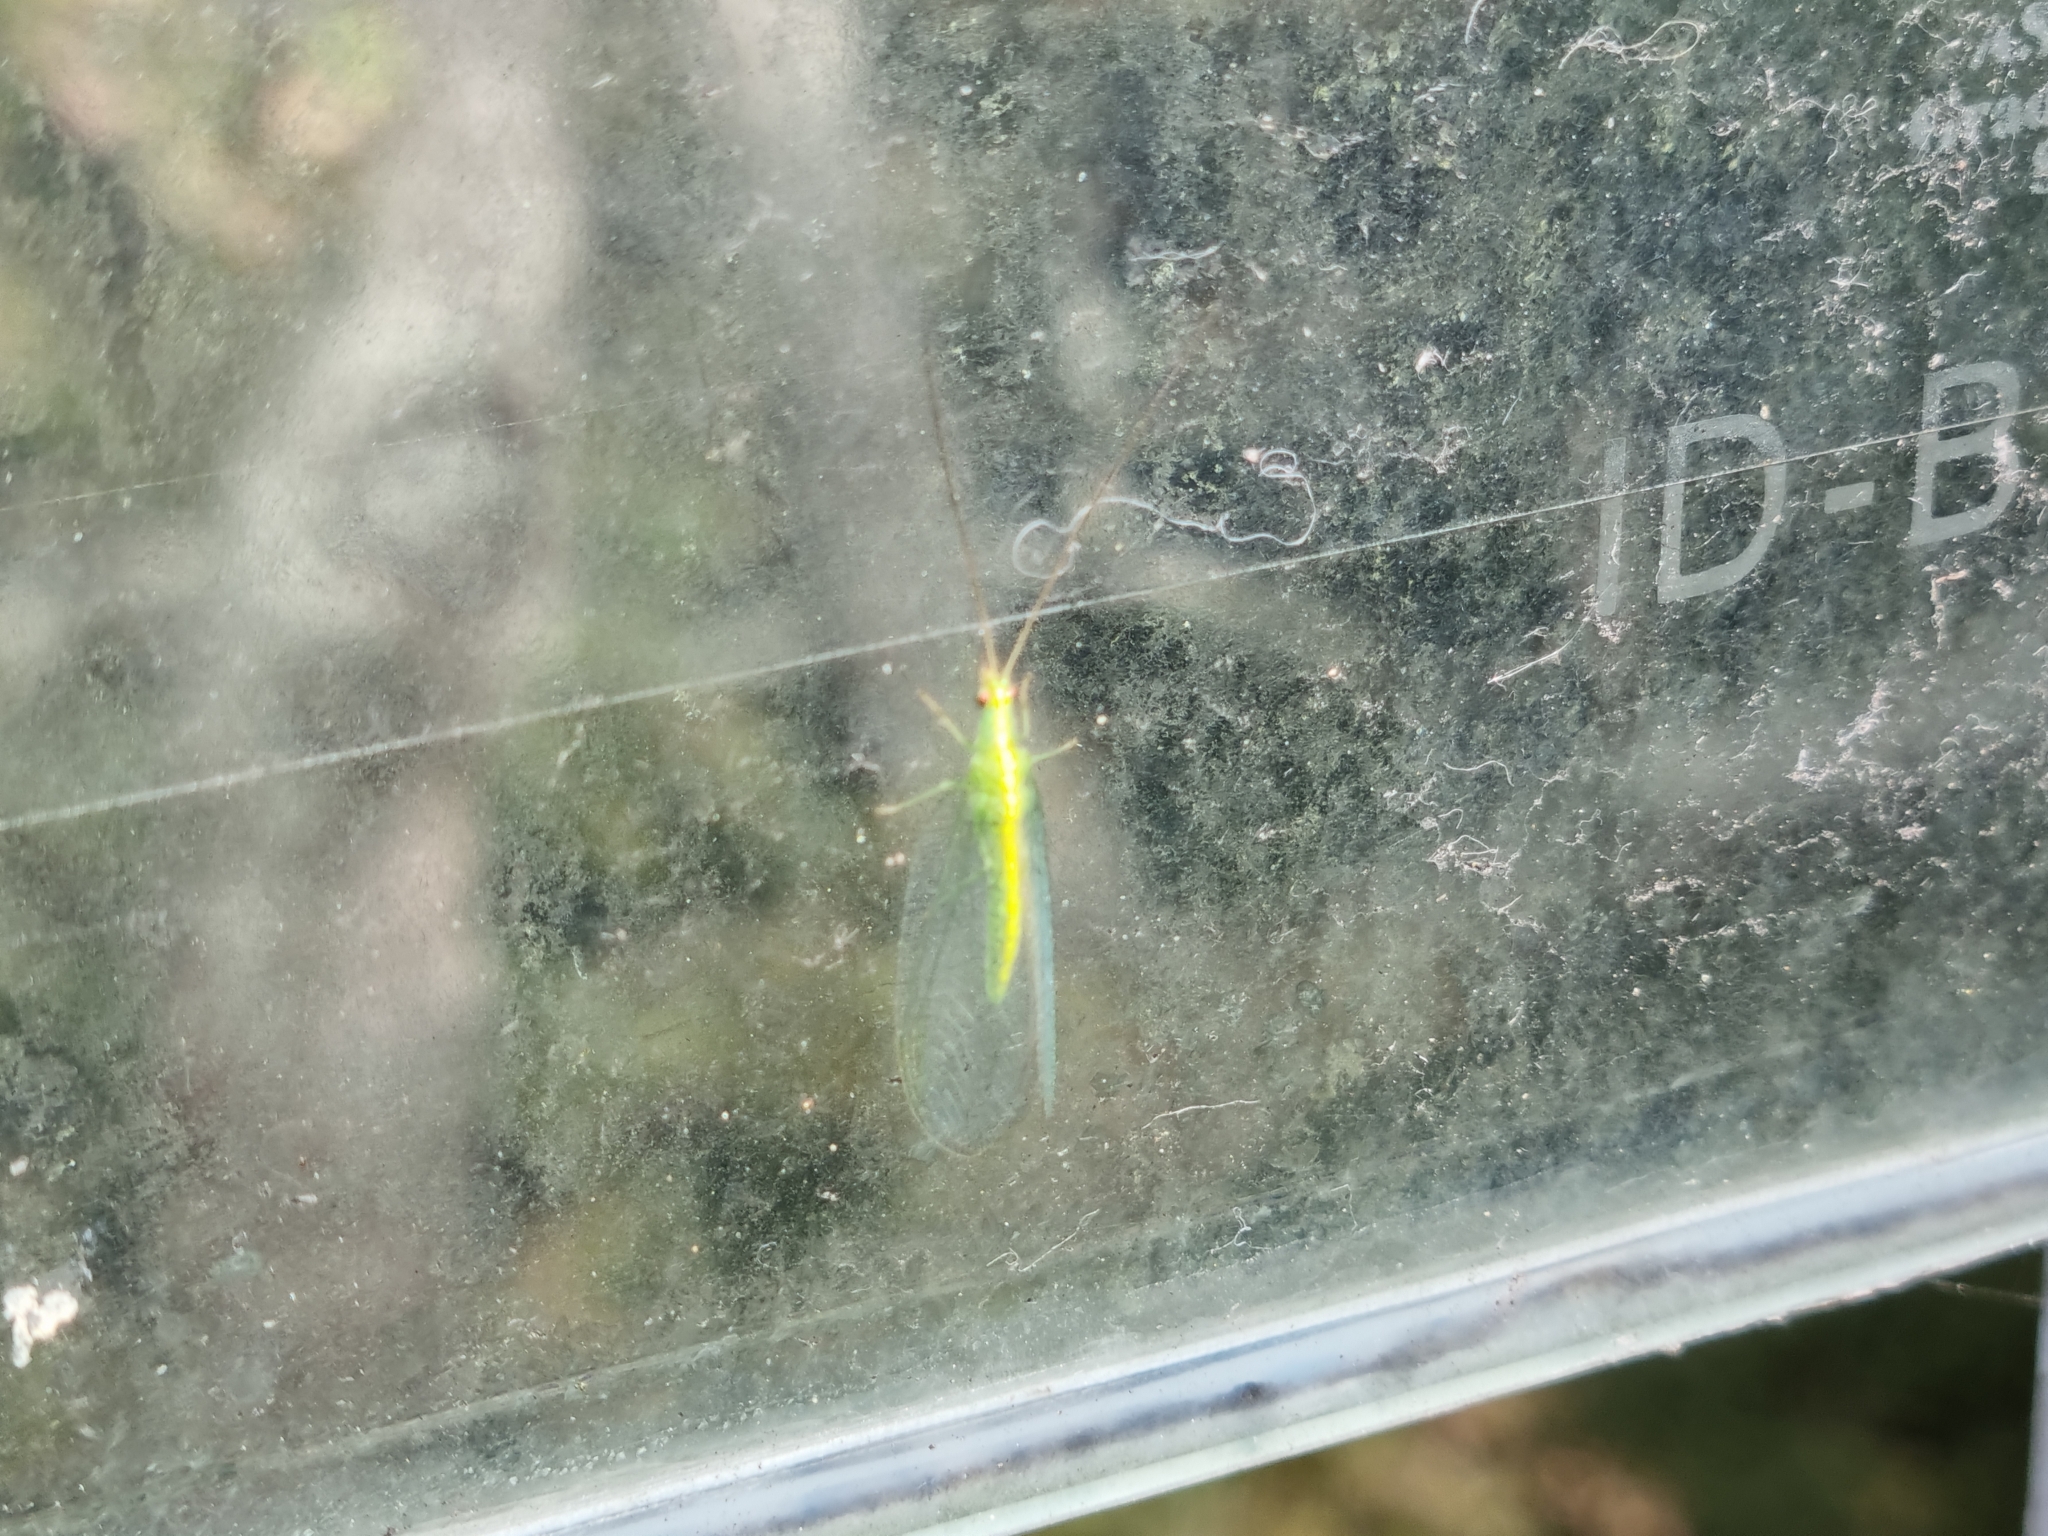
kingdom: Animalia
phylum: Arthropoda
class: Insecta
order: Neuroptera
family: Chrysopidae
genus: Mallada
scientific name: Mallada basalis
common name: Green lacewing
